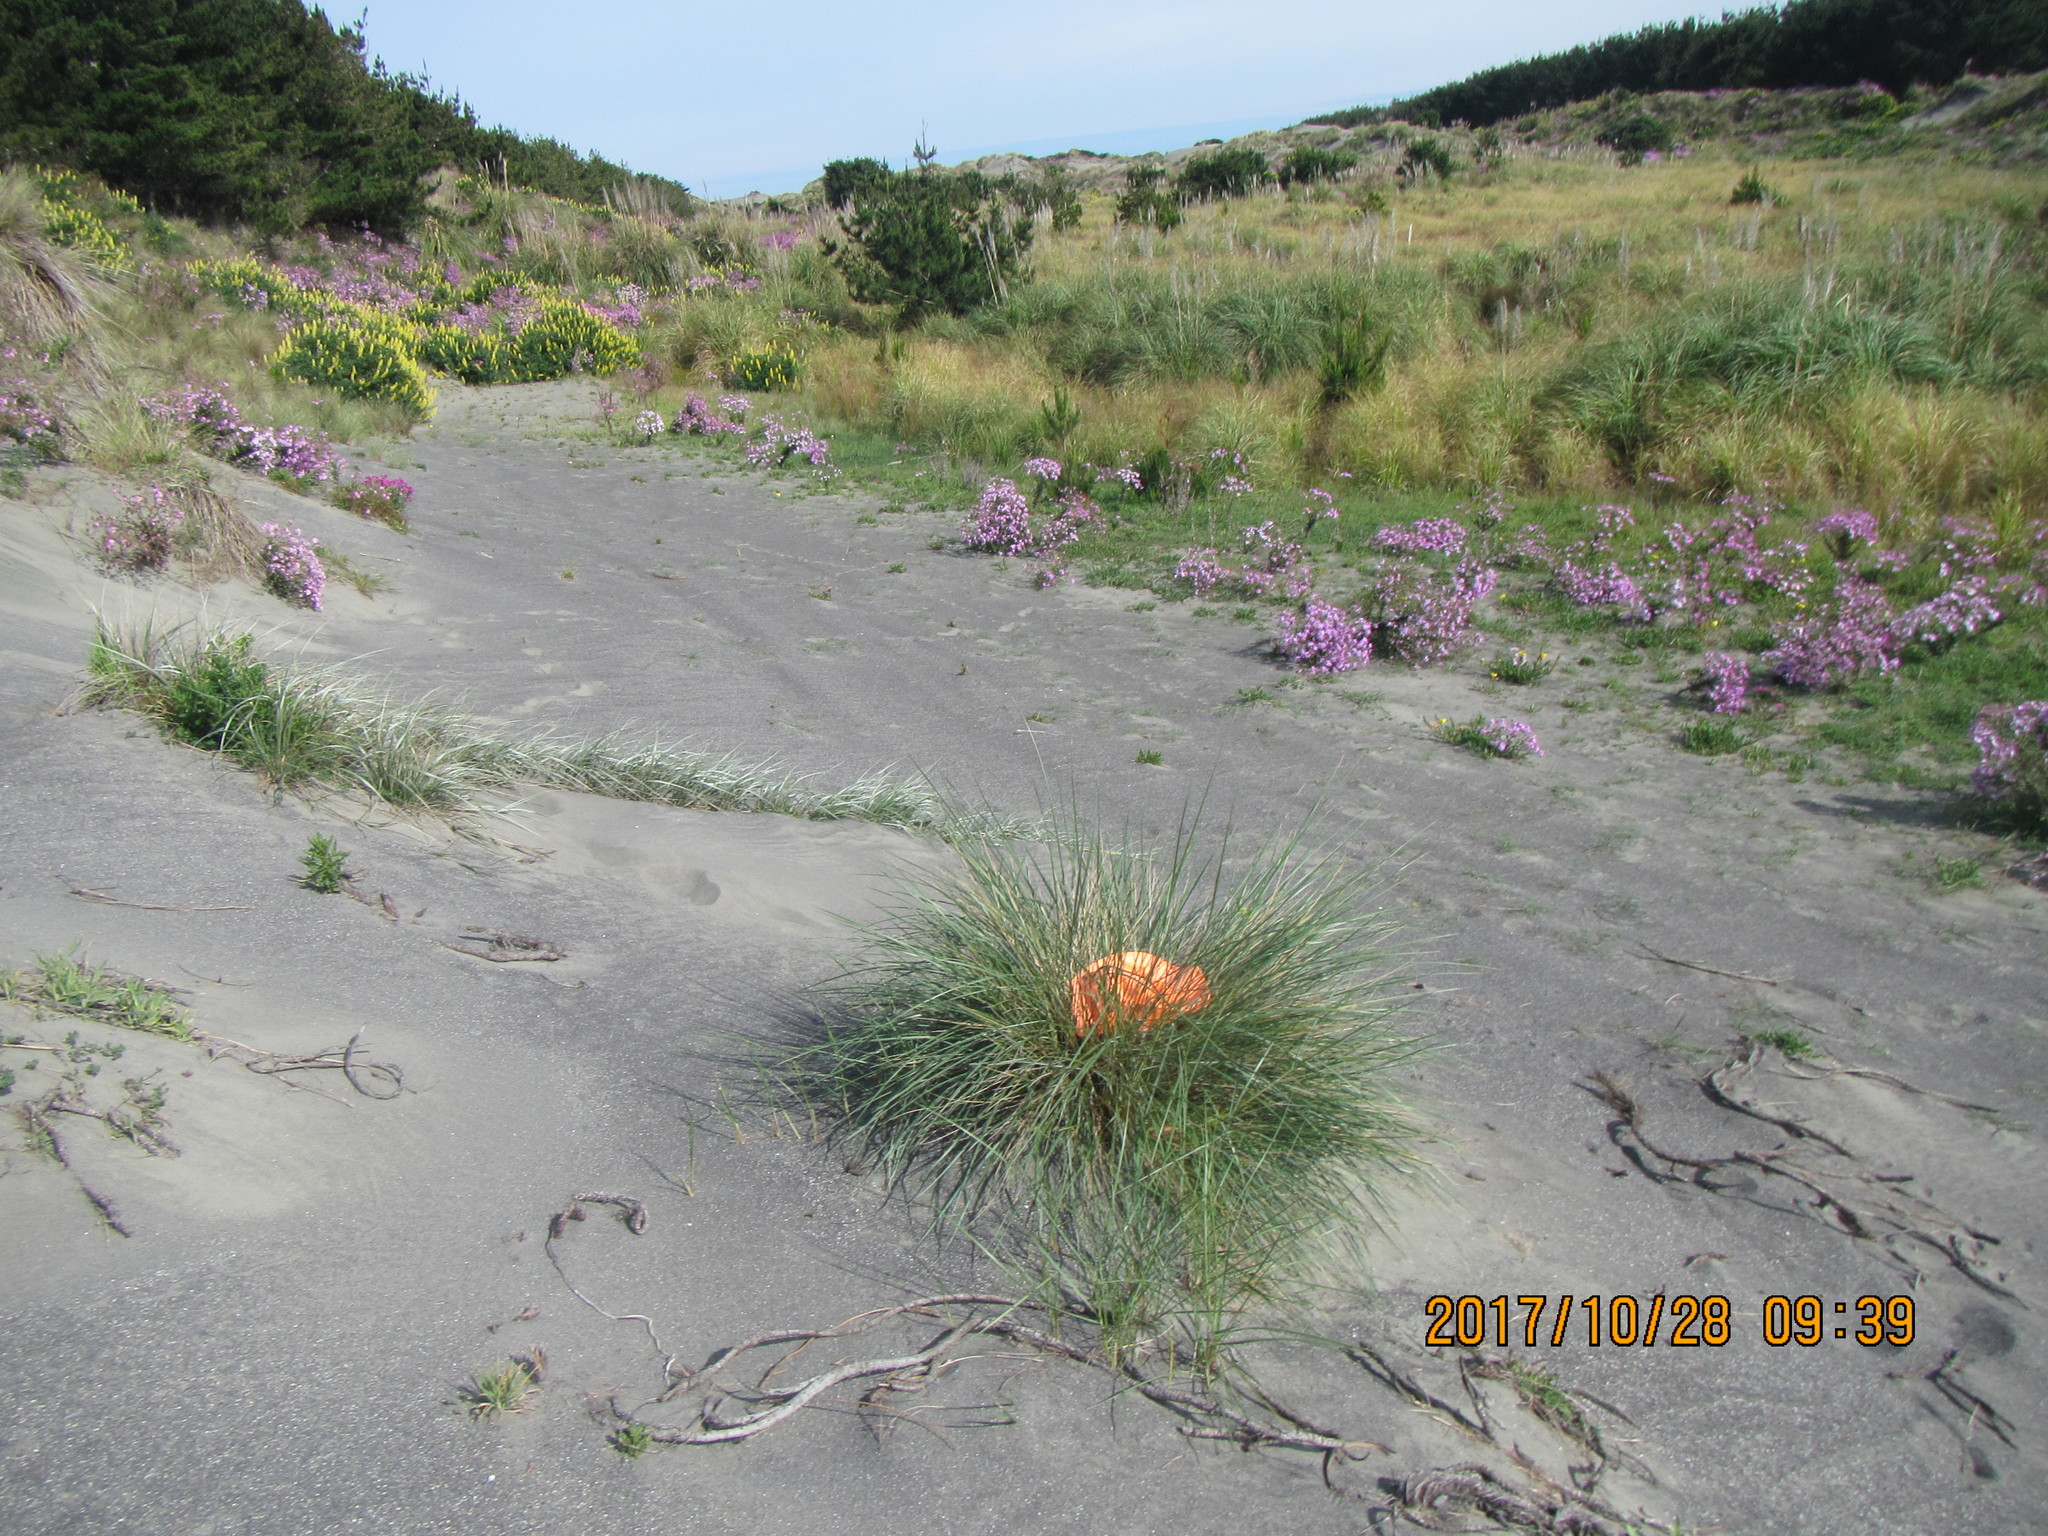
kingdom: Animalia
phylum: Arthropoda
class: Arachnida
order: Araneae
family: Pisauridae
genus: Dolomedes
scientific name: Dolomedes minor
